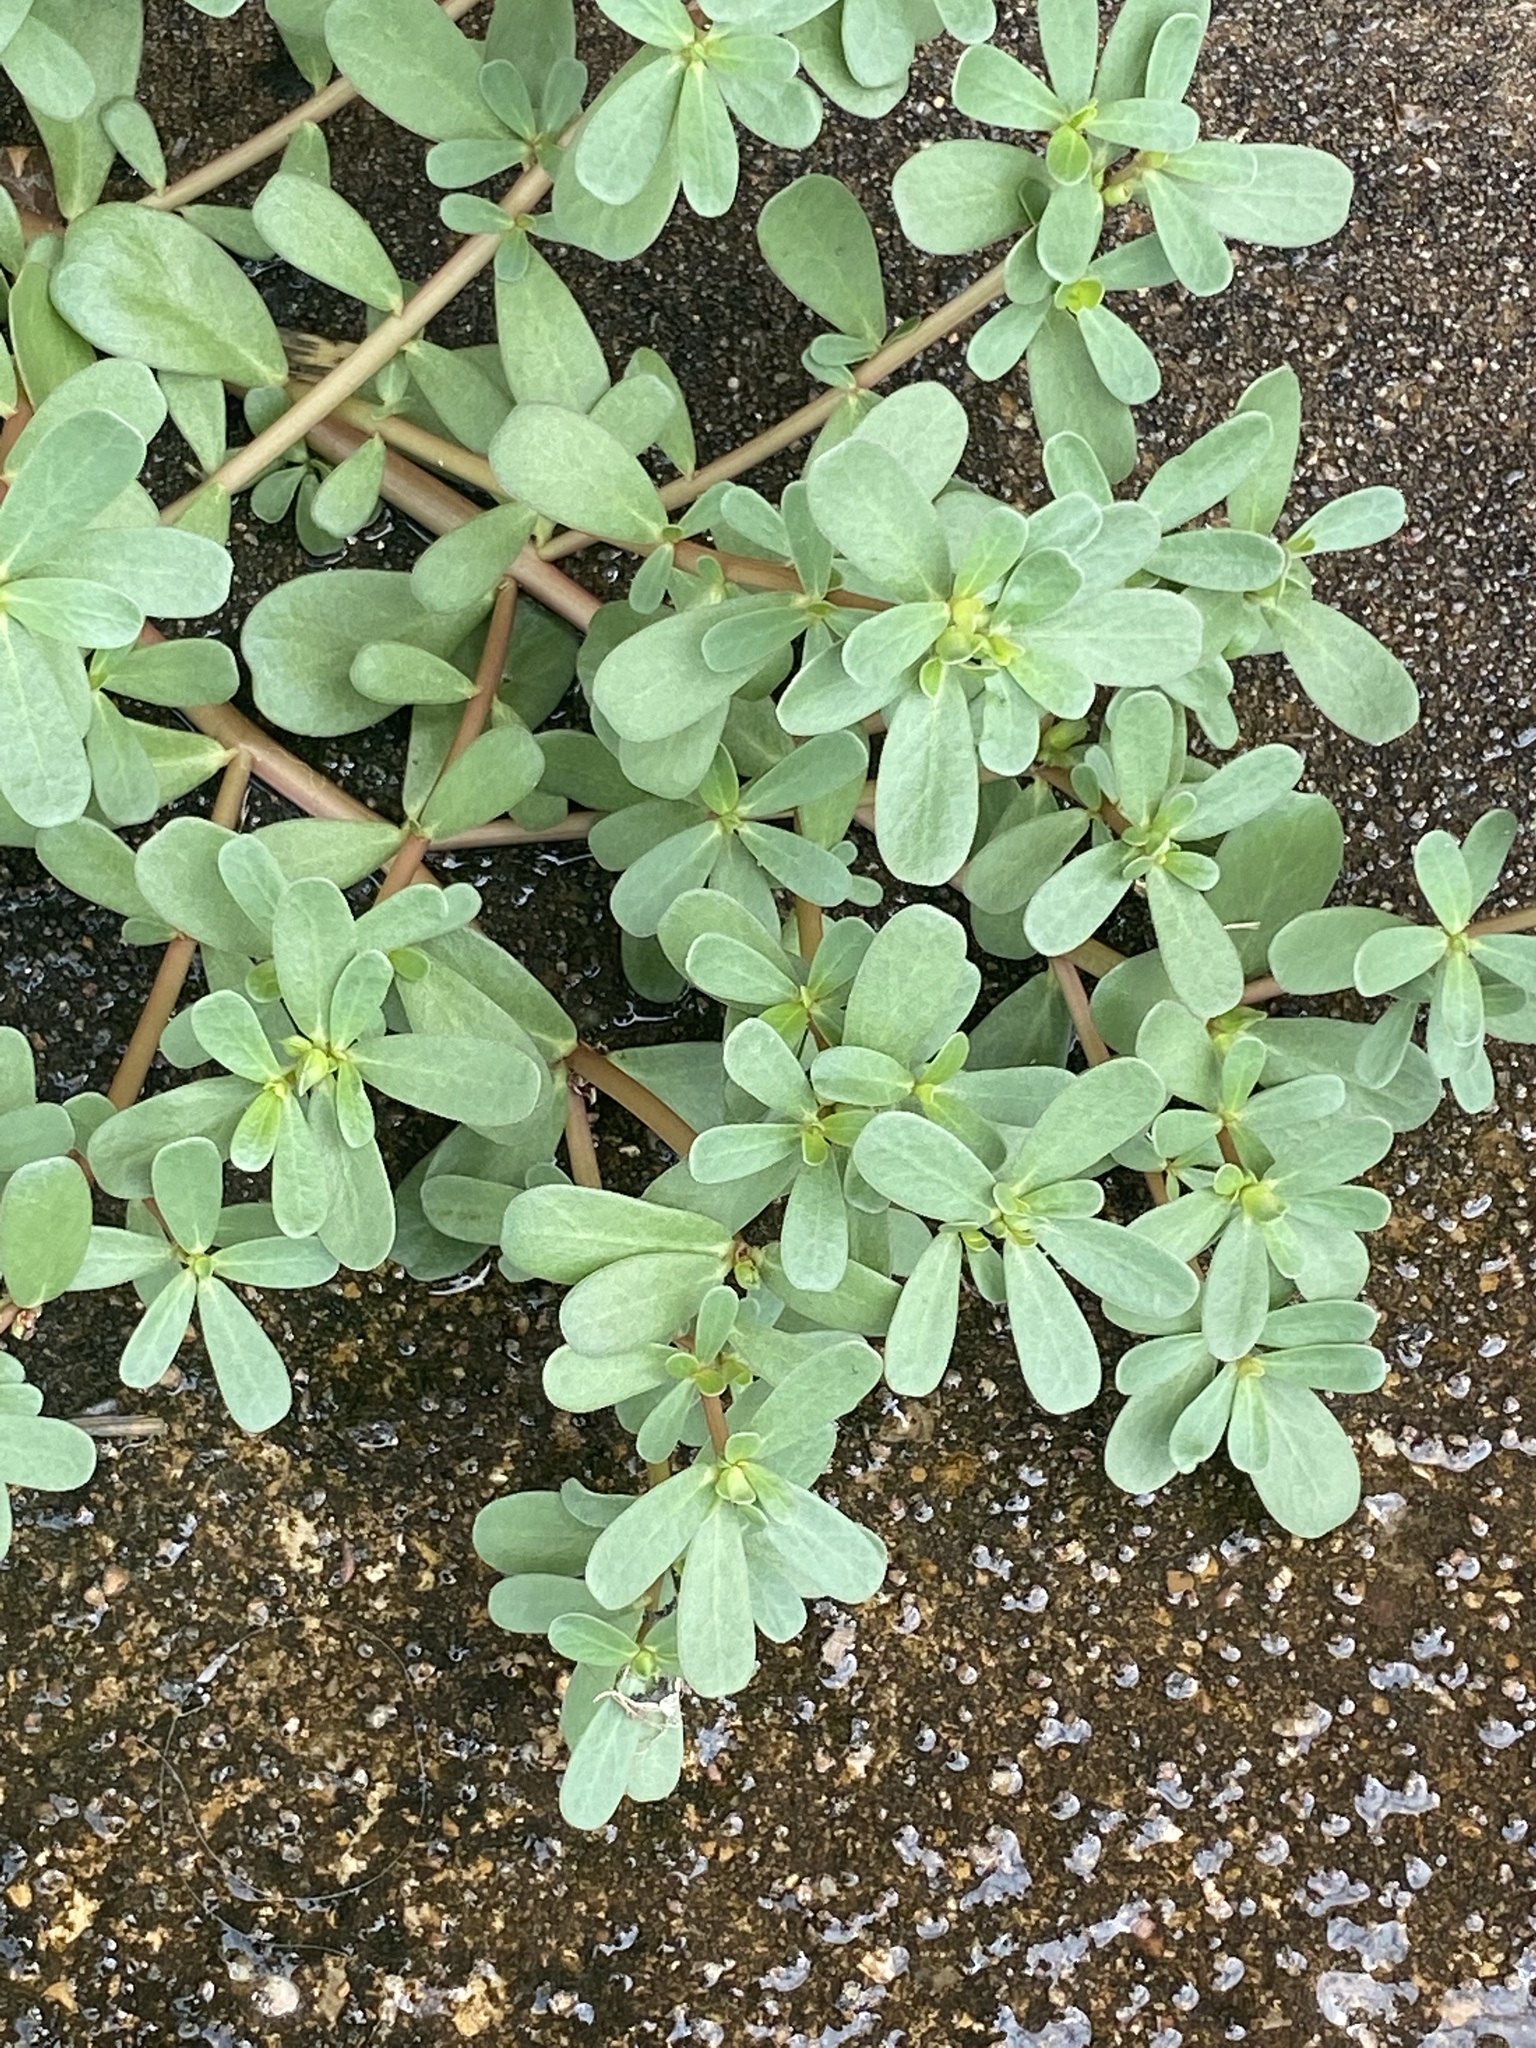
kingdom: Plantae
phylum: Tracheophyta
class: Magnoliopsida
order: Caryophyllales
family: Portulacaceae
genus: Portulaca
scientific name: Portulaca oleracea
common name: Common purslane
